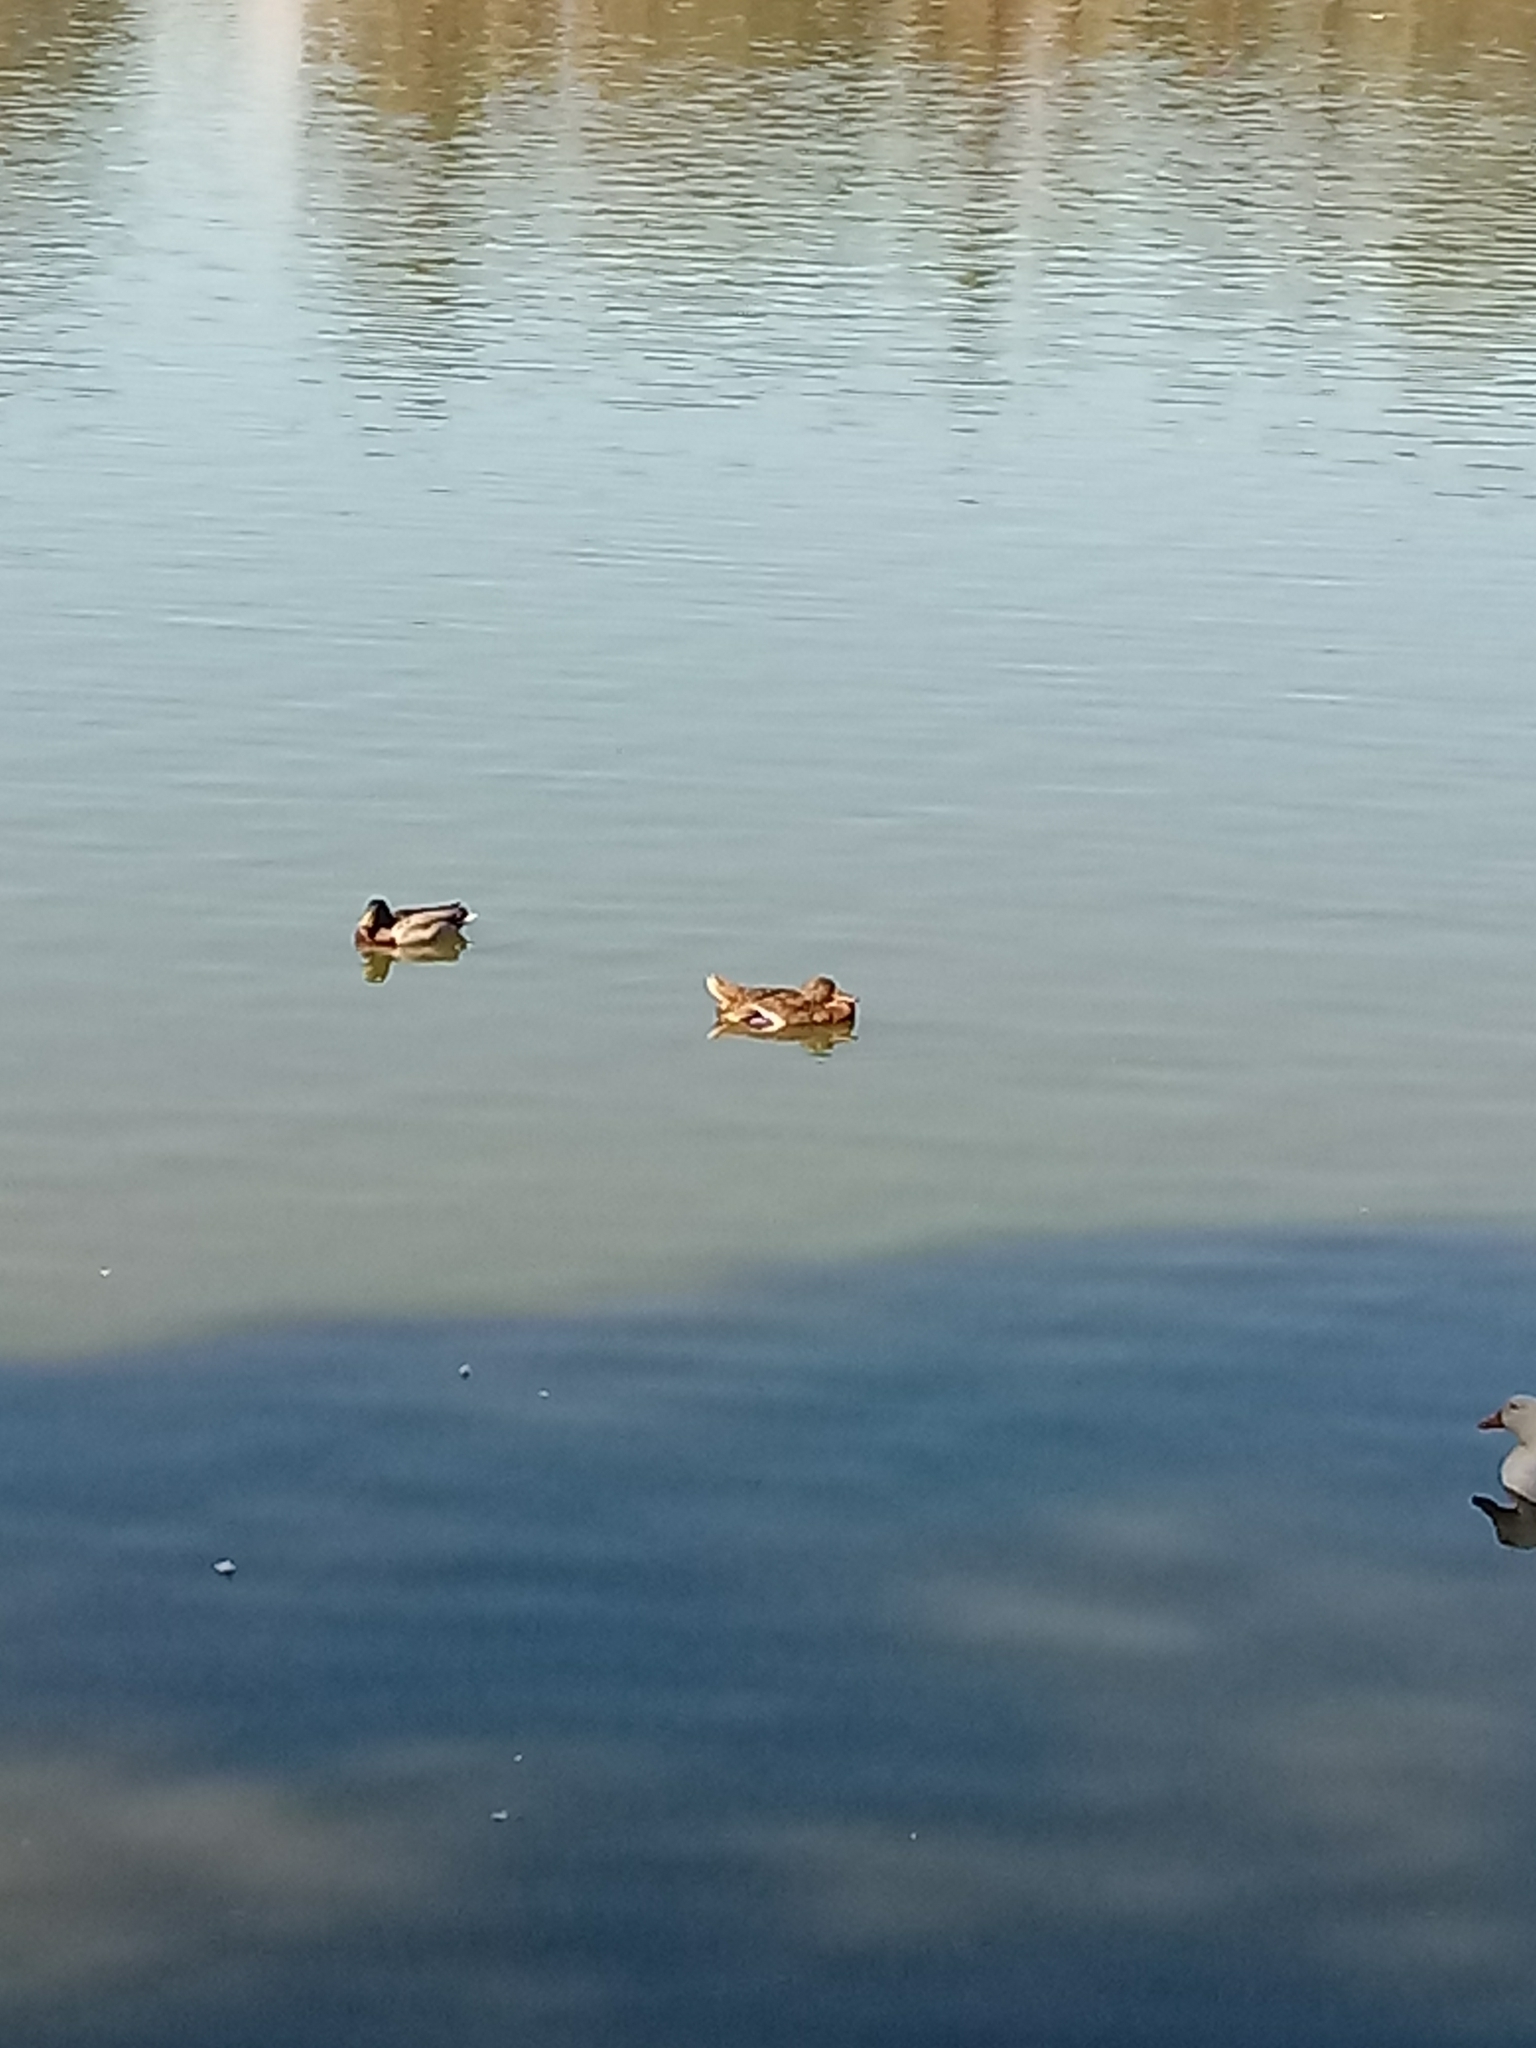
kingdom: Animalia
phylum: Chordata
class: Aves
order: Anseriformes
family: Anatidae
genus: Anas
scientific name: Anas platyrhynchos
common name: Mallard
